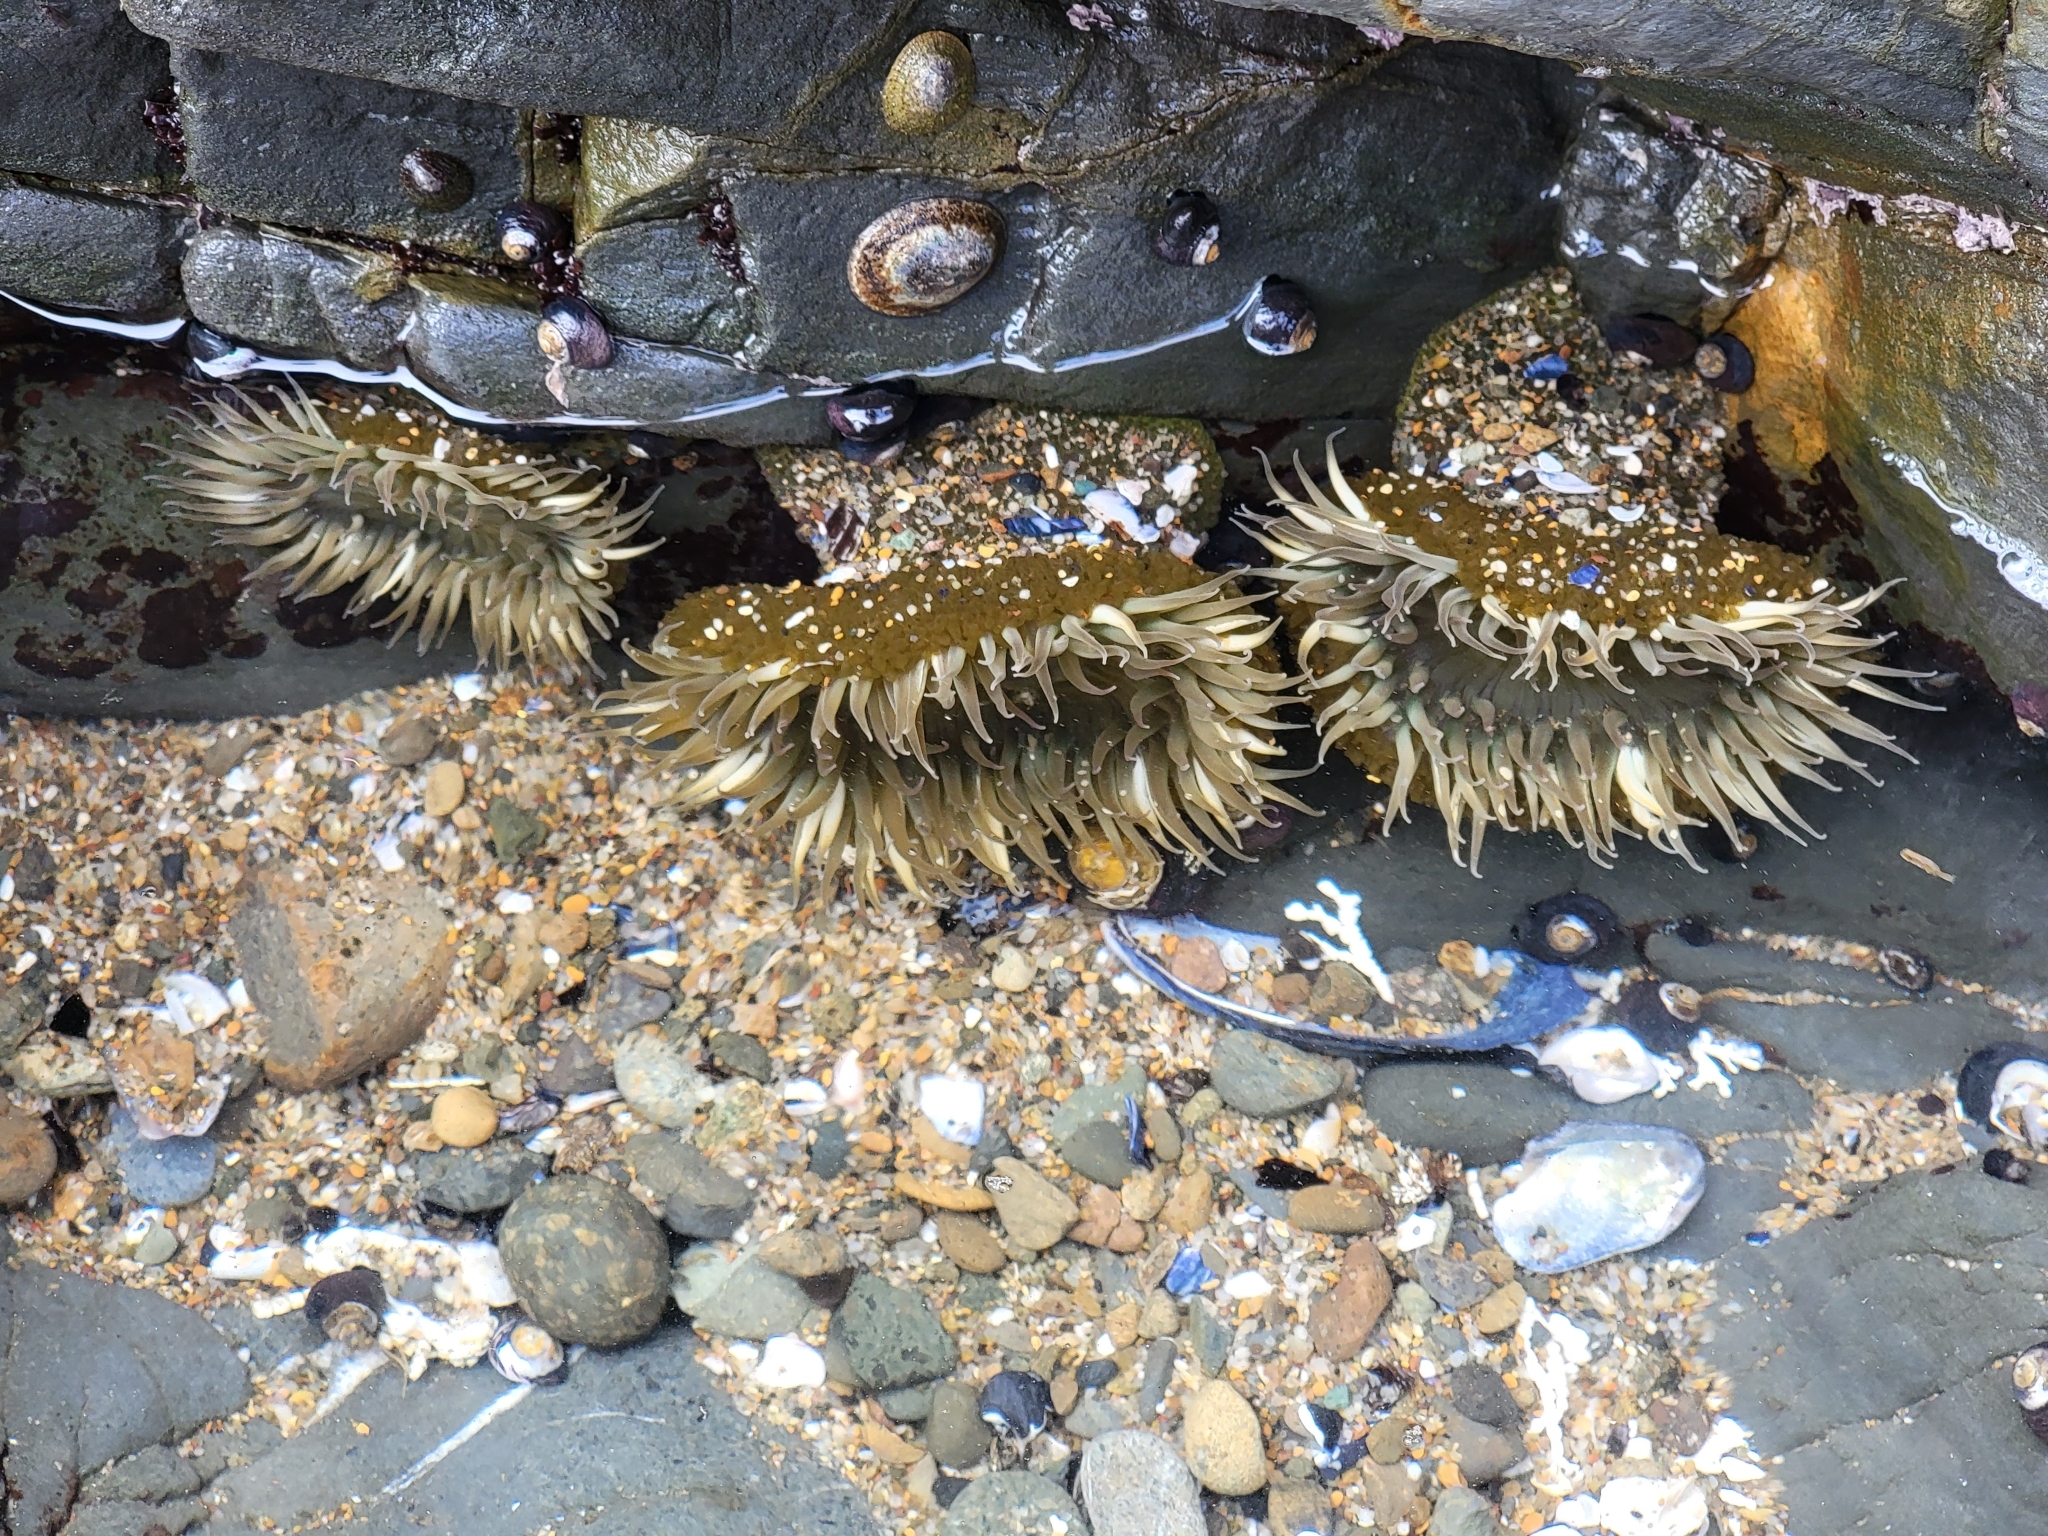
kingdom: Animalia
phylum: Cnidaria
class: Anthozoa
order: Actiniaria
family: Actiniidae
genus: Anthopleura
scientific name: Anthopleura sola
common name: Sun anemone
